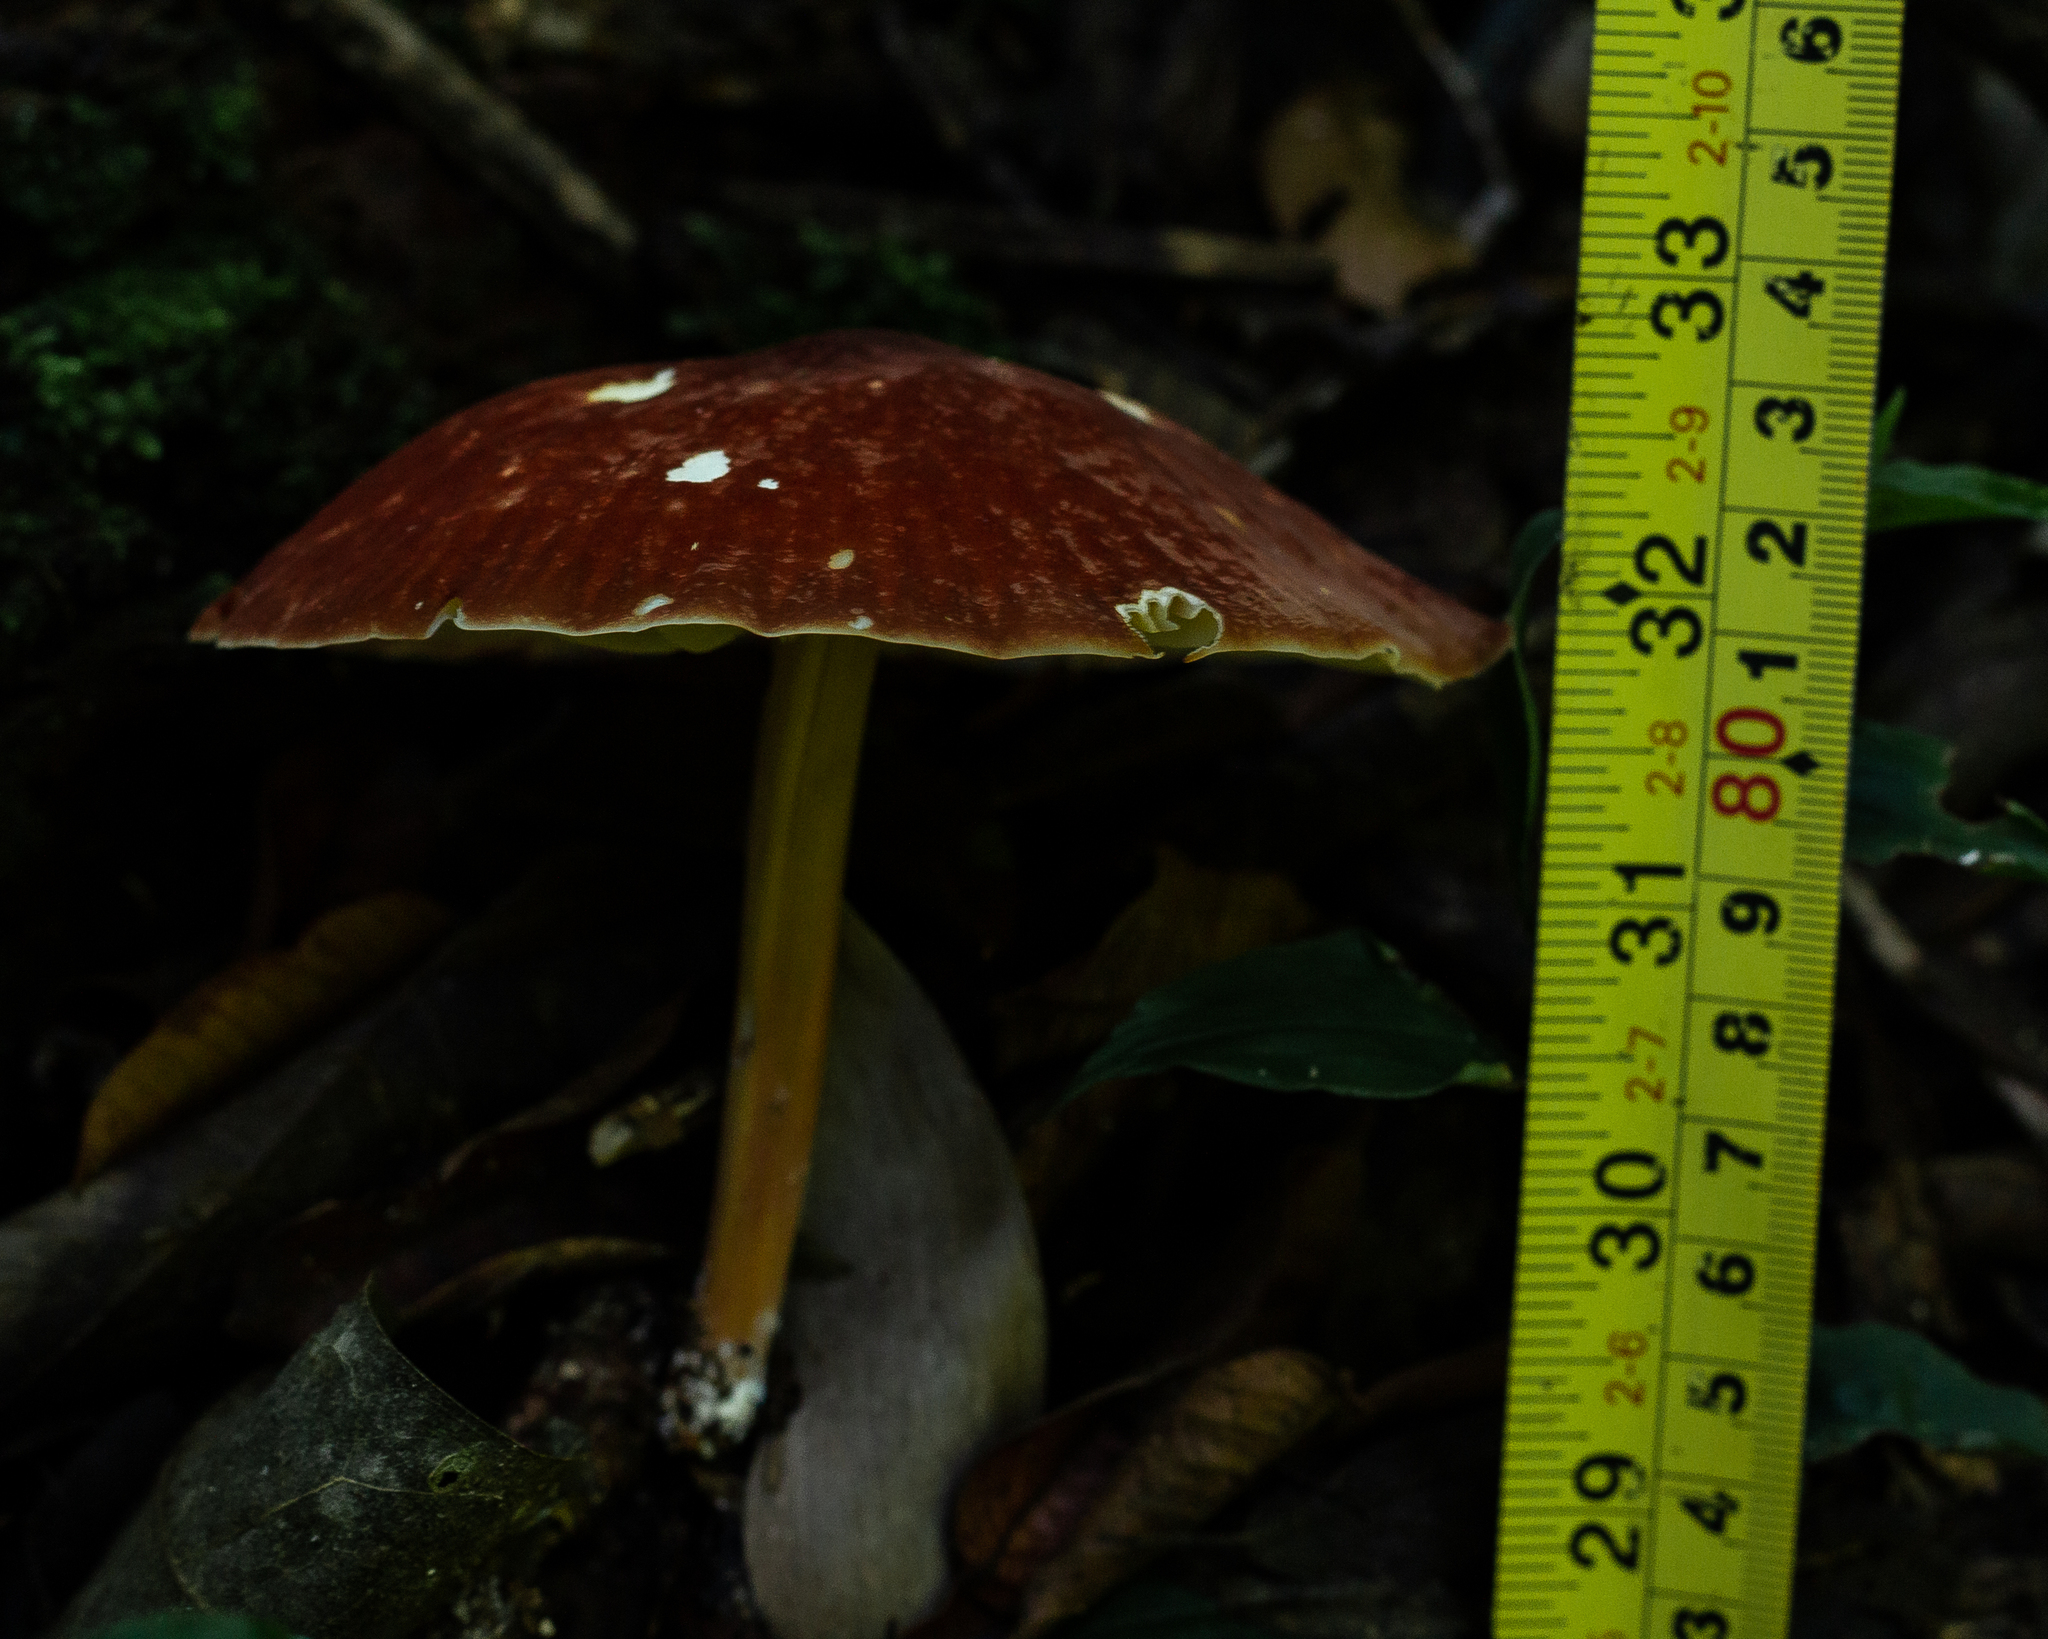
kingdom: Fungi
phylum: Basidiomycota
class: Agaricomycetes
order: Agaricales
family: Marasmiaceae
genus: Marasmius
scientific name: Marasmius magnus
